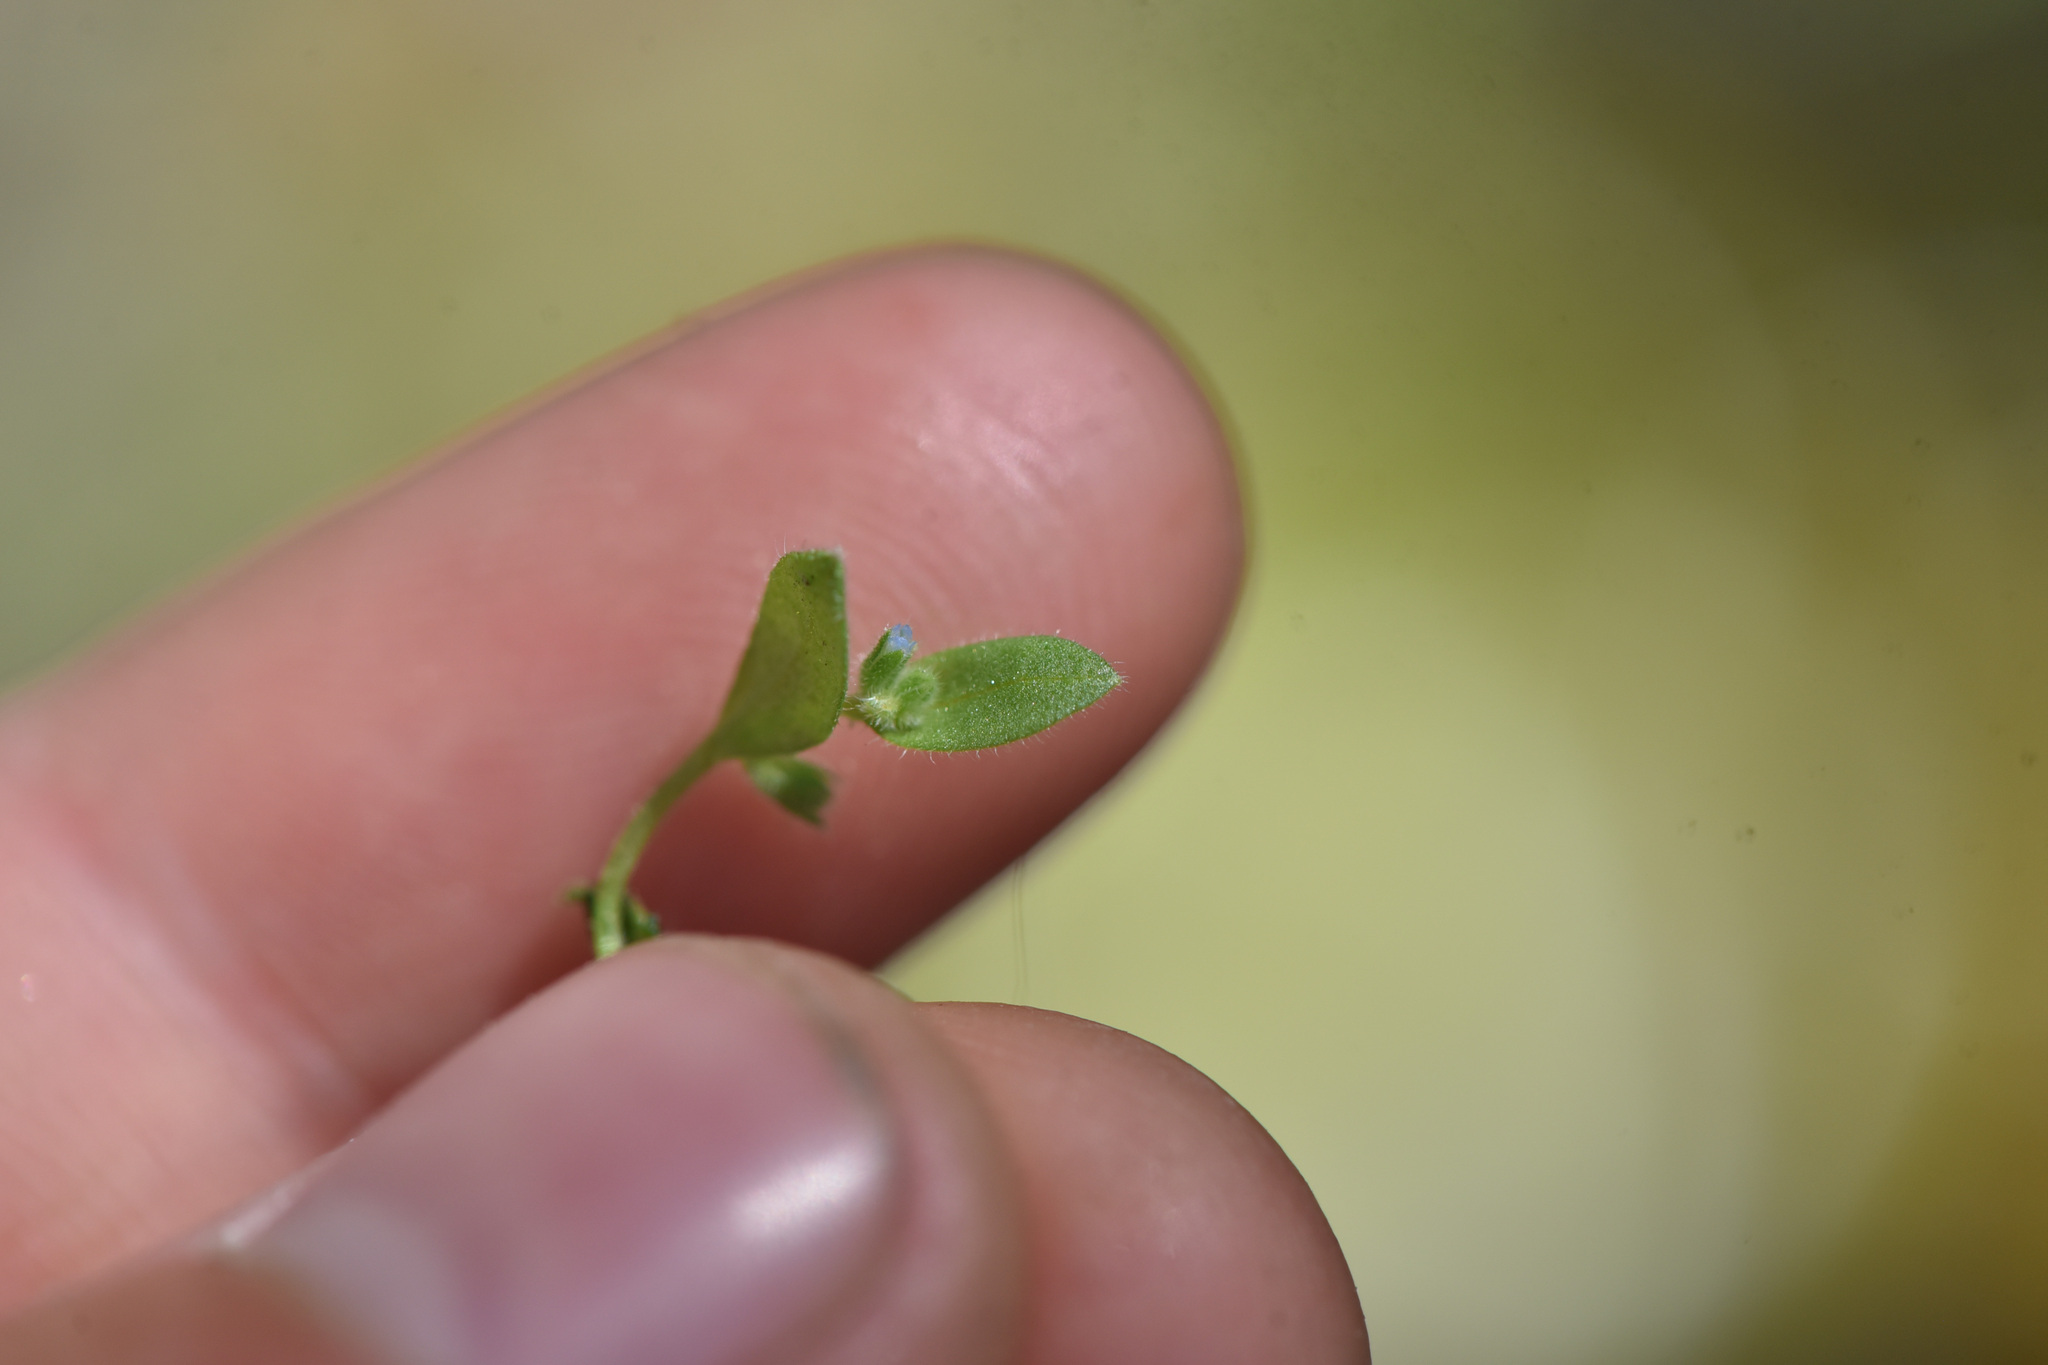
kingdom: Plantae
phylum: Tracheophyta
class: Magnoliopsida
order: Boraginales
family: Boraginaceae
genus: Myosotis
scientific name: Myosotis stricta
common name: Strict forget-me-not
